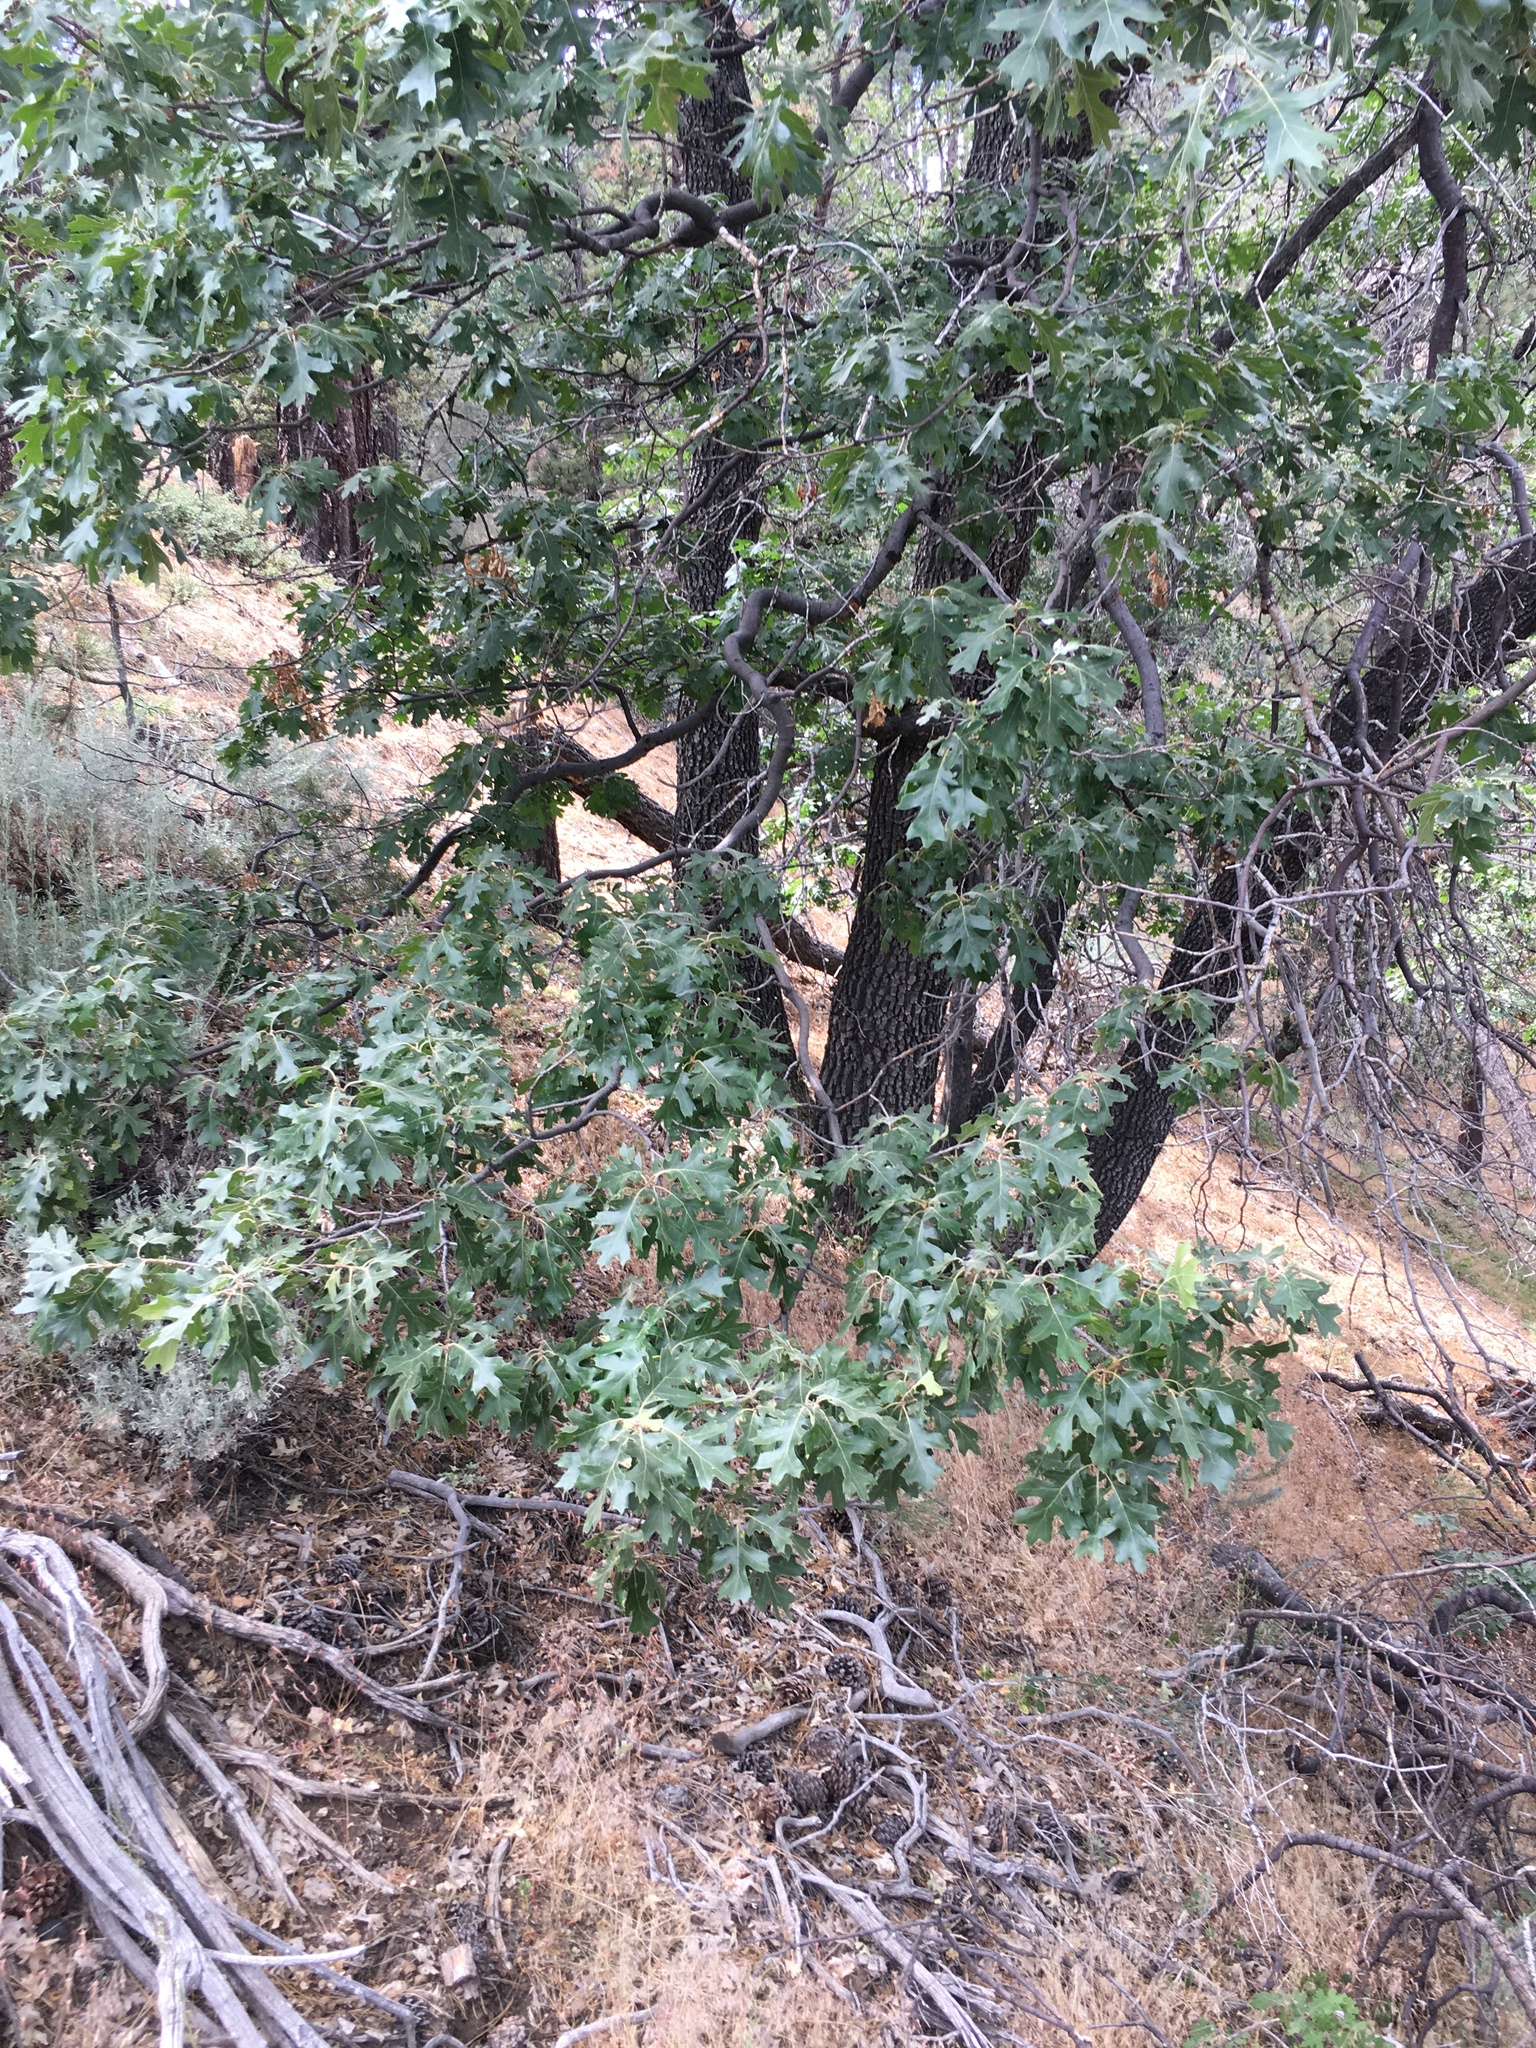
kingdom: Plantae
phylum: Tracheophyta
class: Magnoliopsida
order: Fagales
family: Fagaceae
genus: Quercus
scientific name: Quercus kelloggii
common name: California black oak
